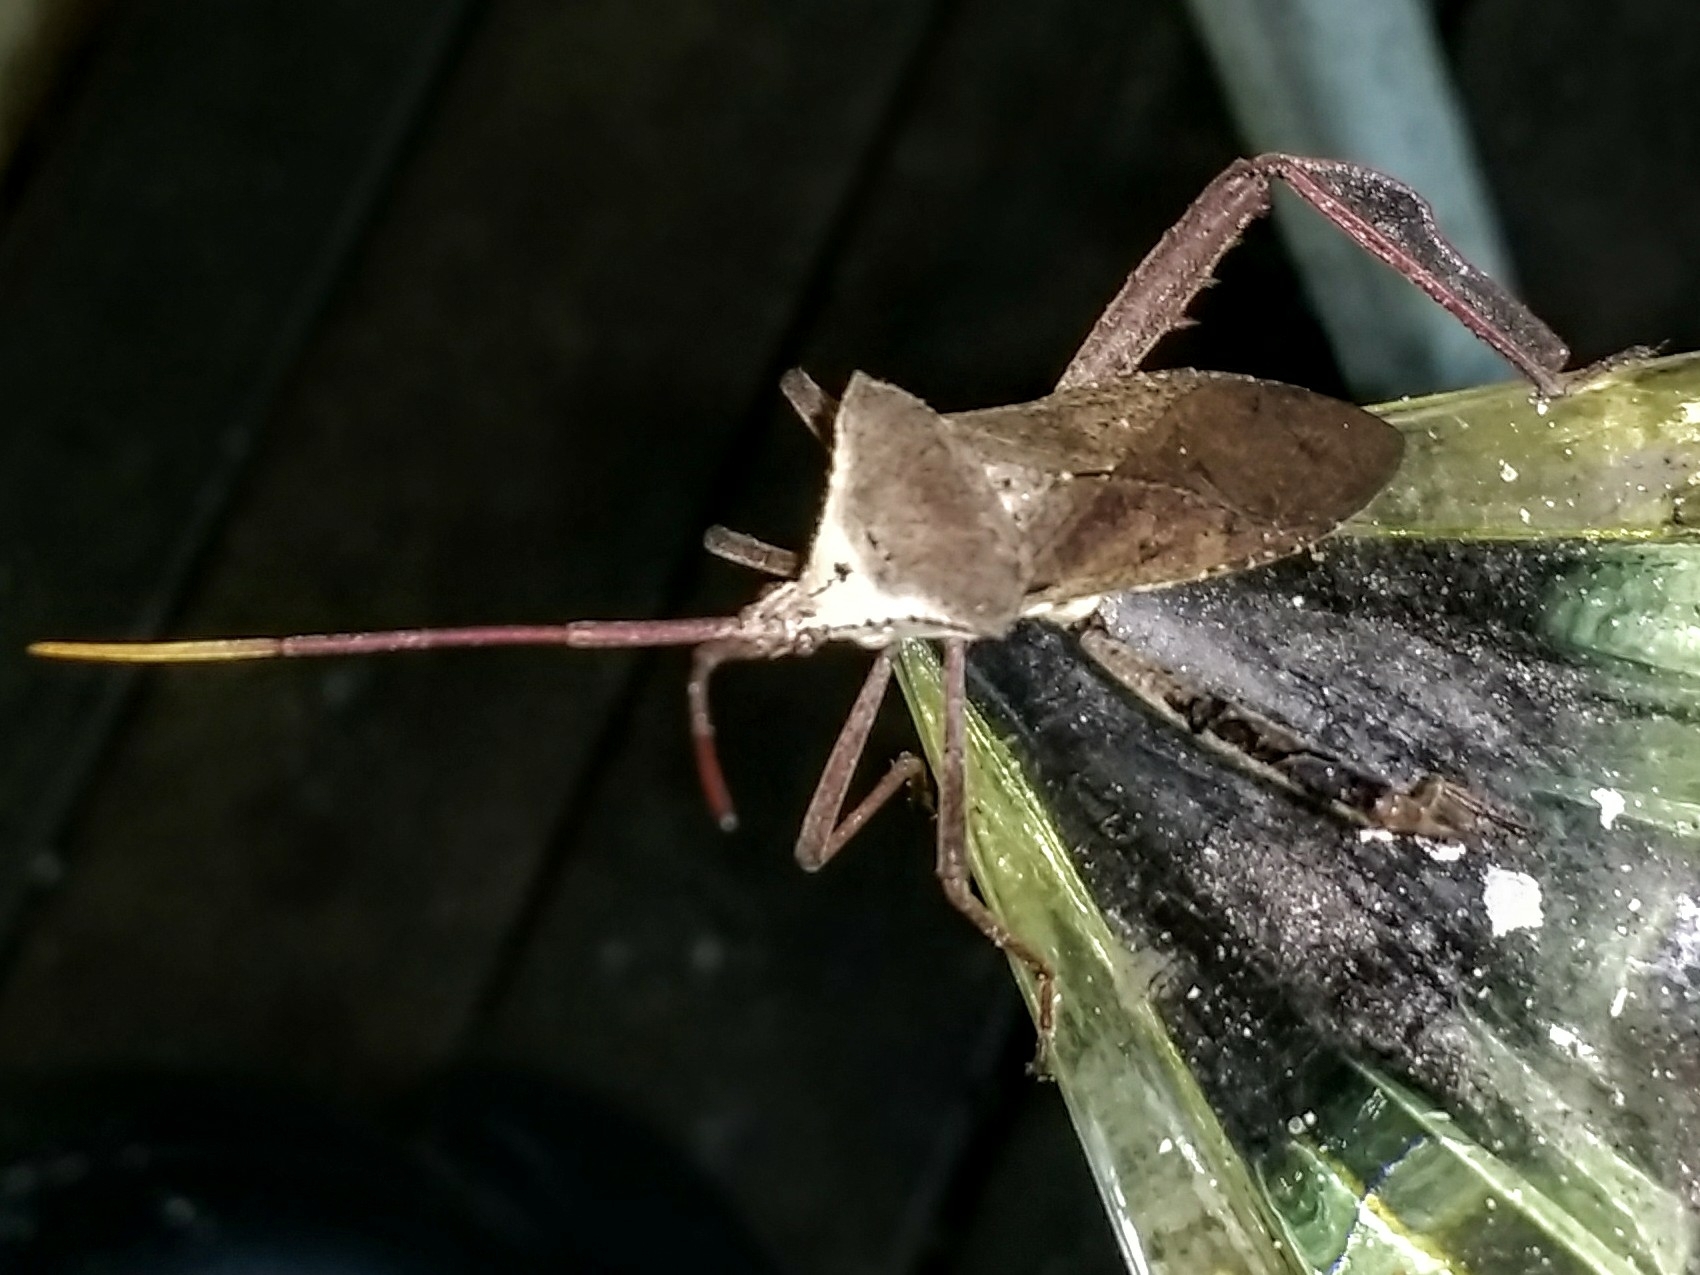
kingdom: Animalia
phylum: Arthropoda
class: Insecta
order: Hemiptera
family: Coreidae
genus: Acanthocephala
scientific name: Acanthocephala declivis
